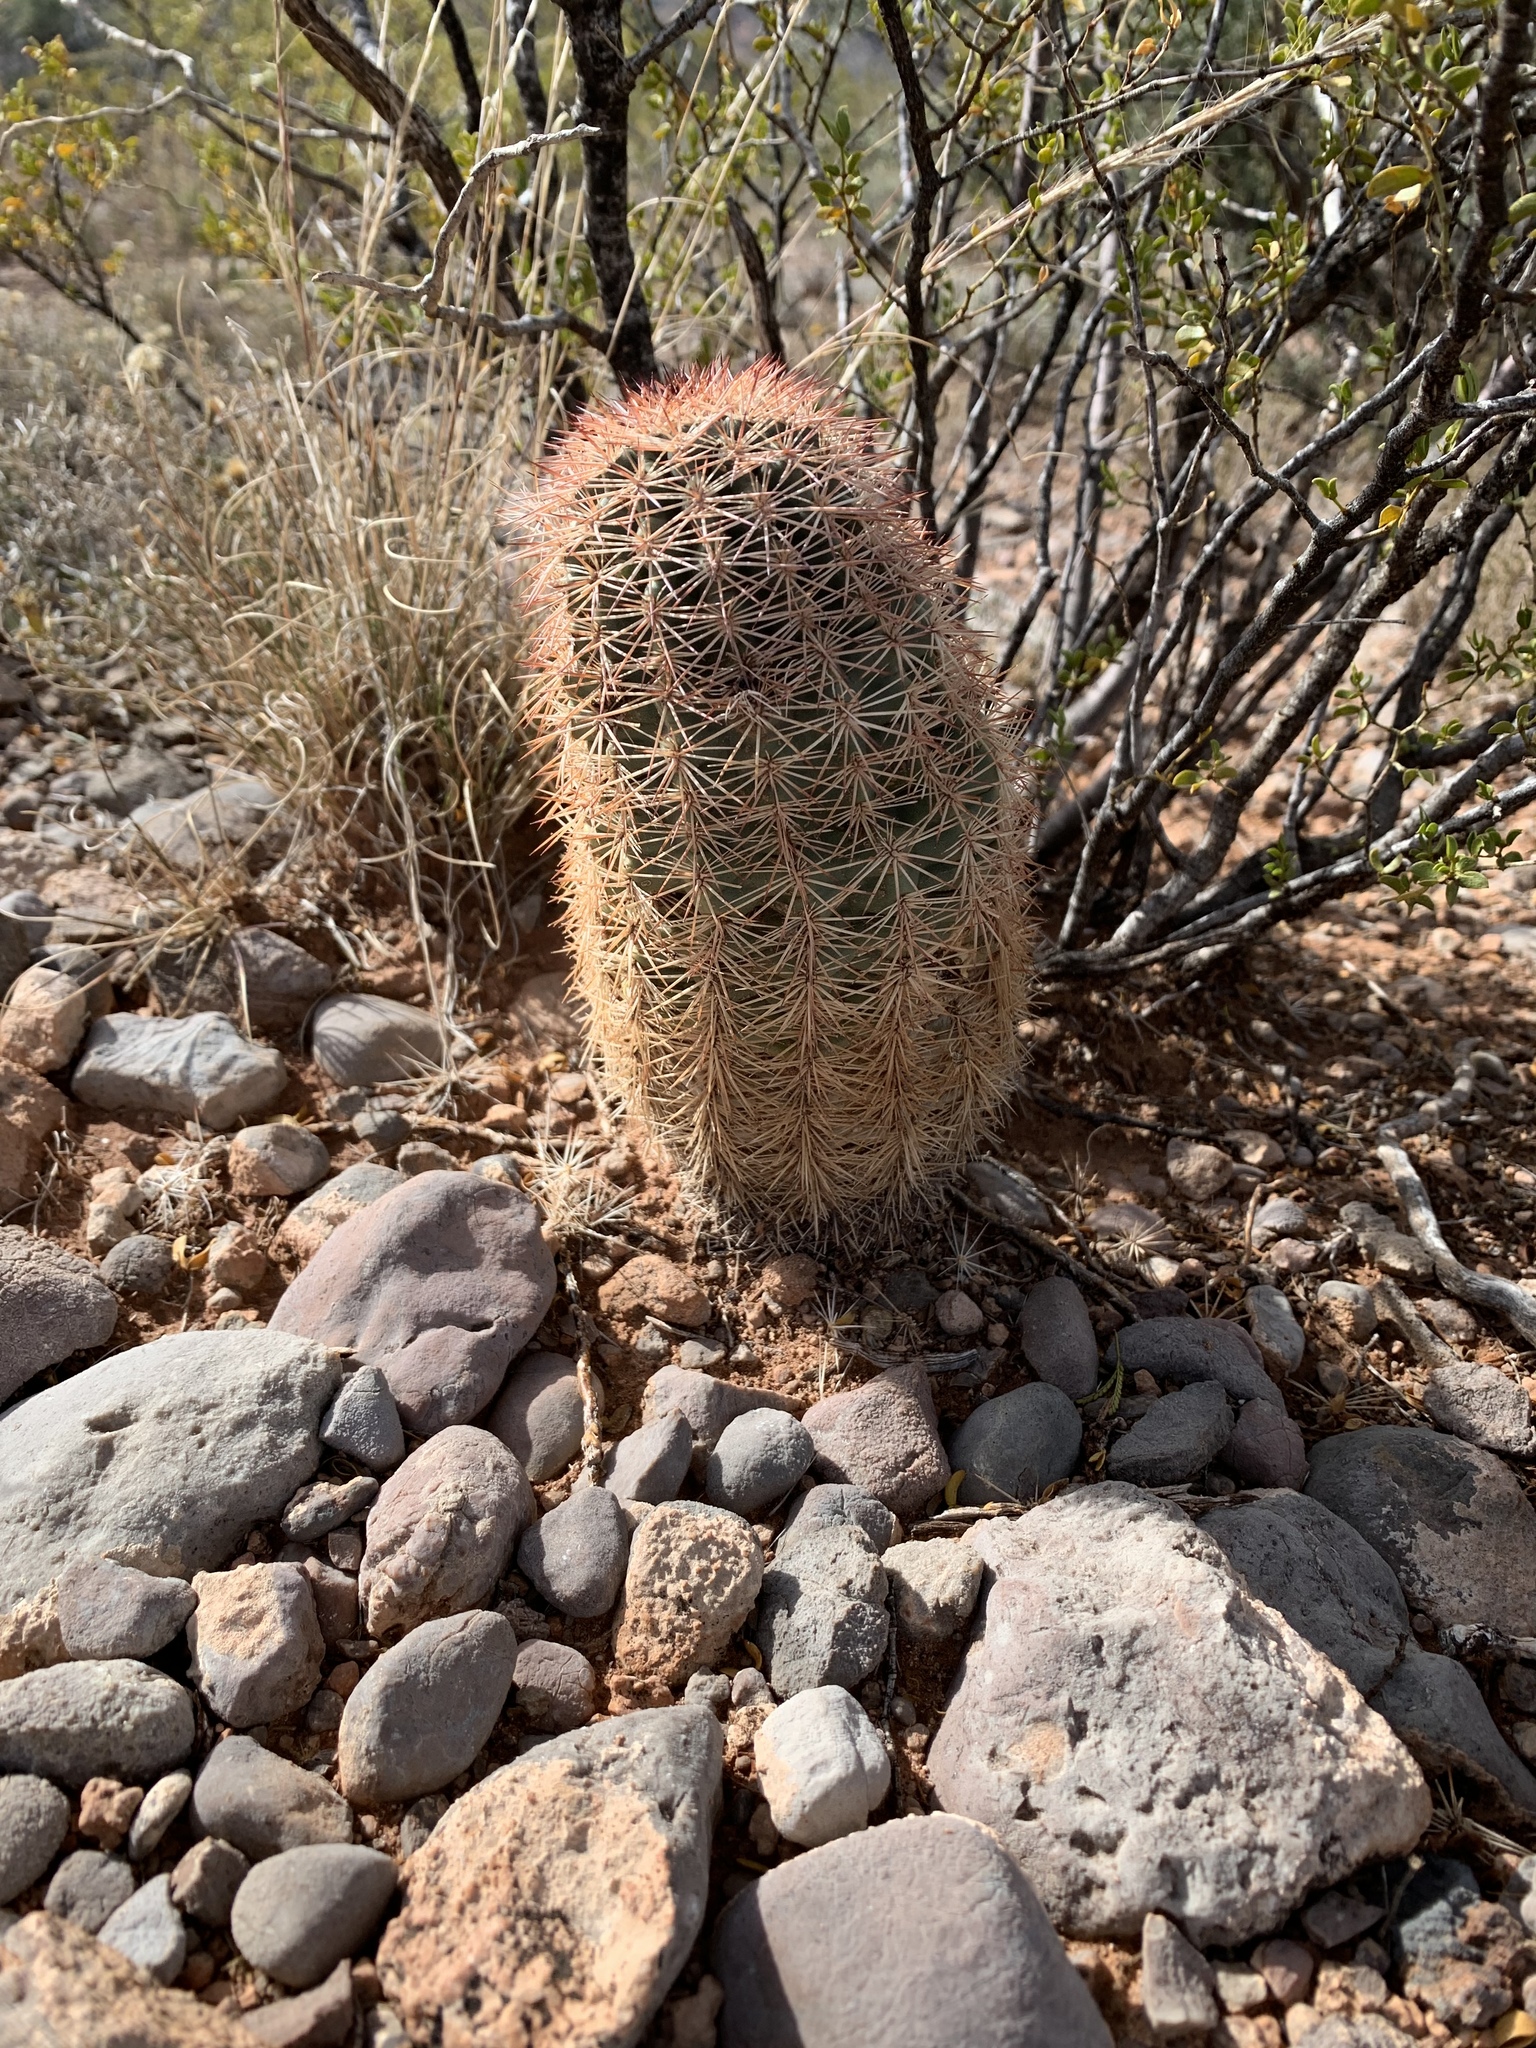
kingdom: Plantae
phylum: Tracheophyta
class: Magnoliopsida
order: Caryophyllales
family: Cactaceae
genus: Echinocereus
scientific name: Echinocereus dasyacanthus
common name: Spiny hedgehog cactus
